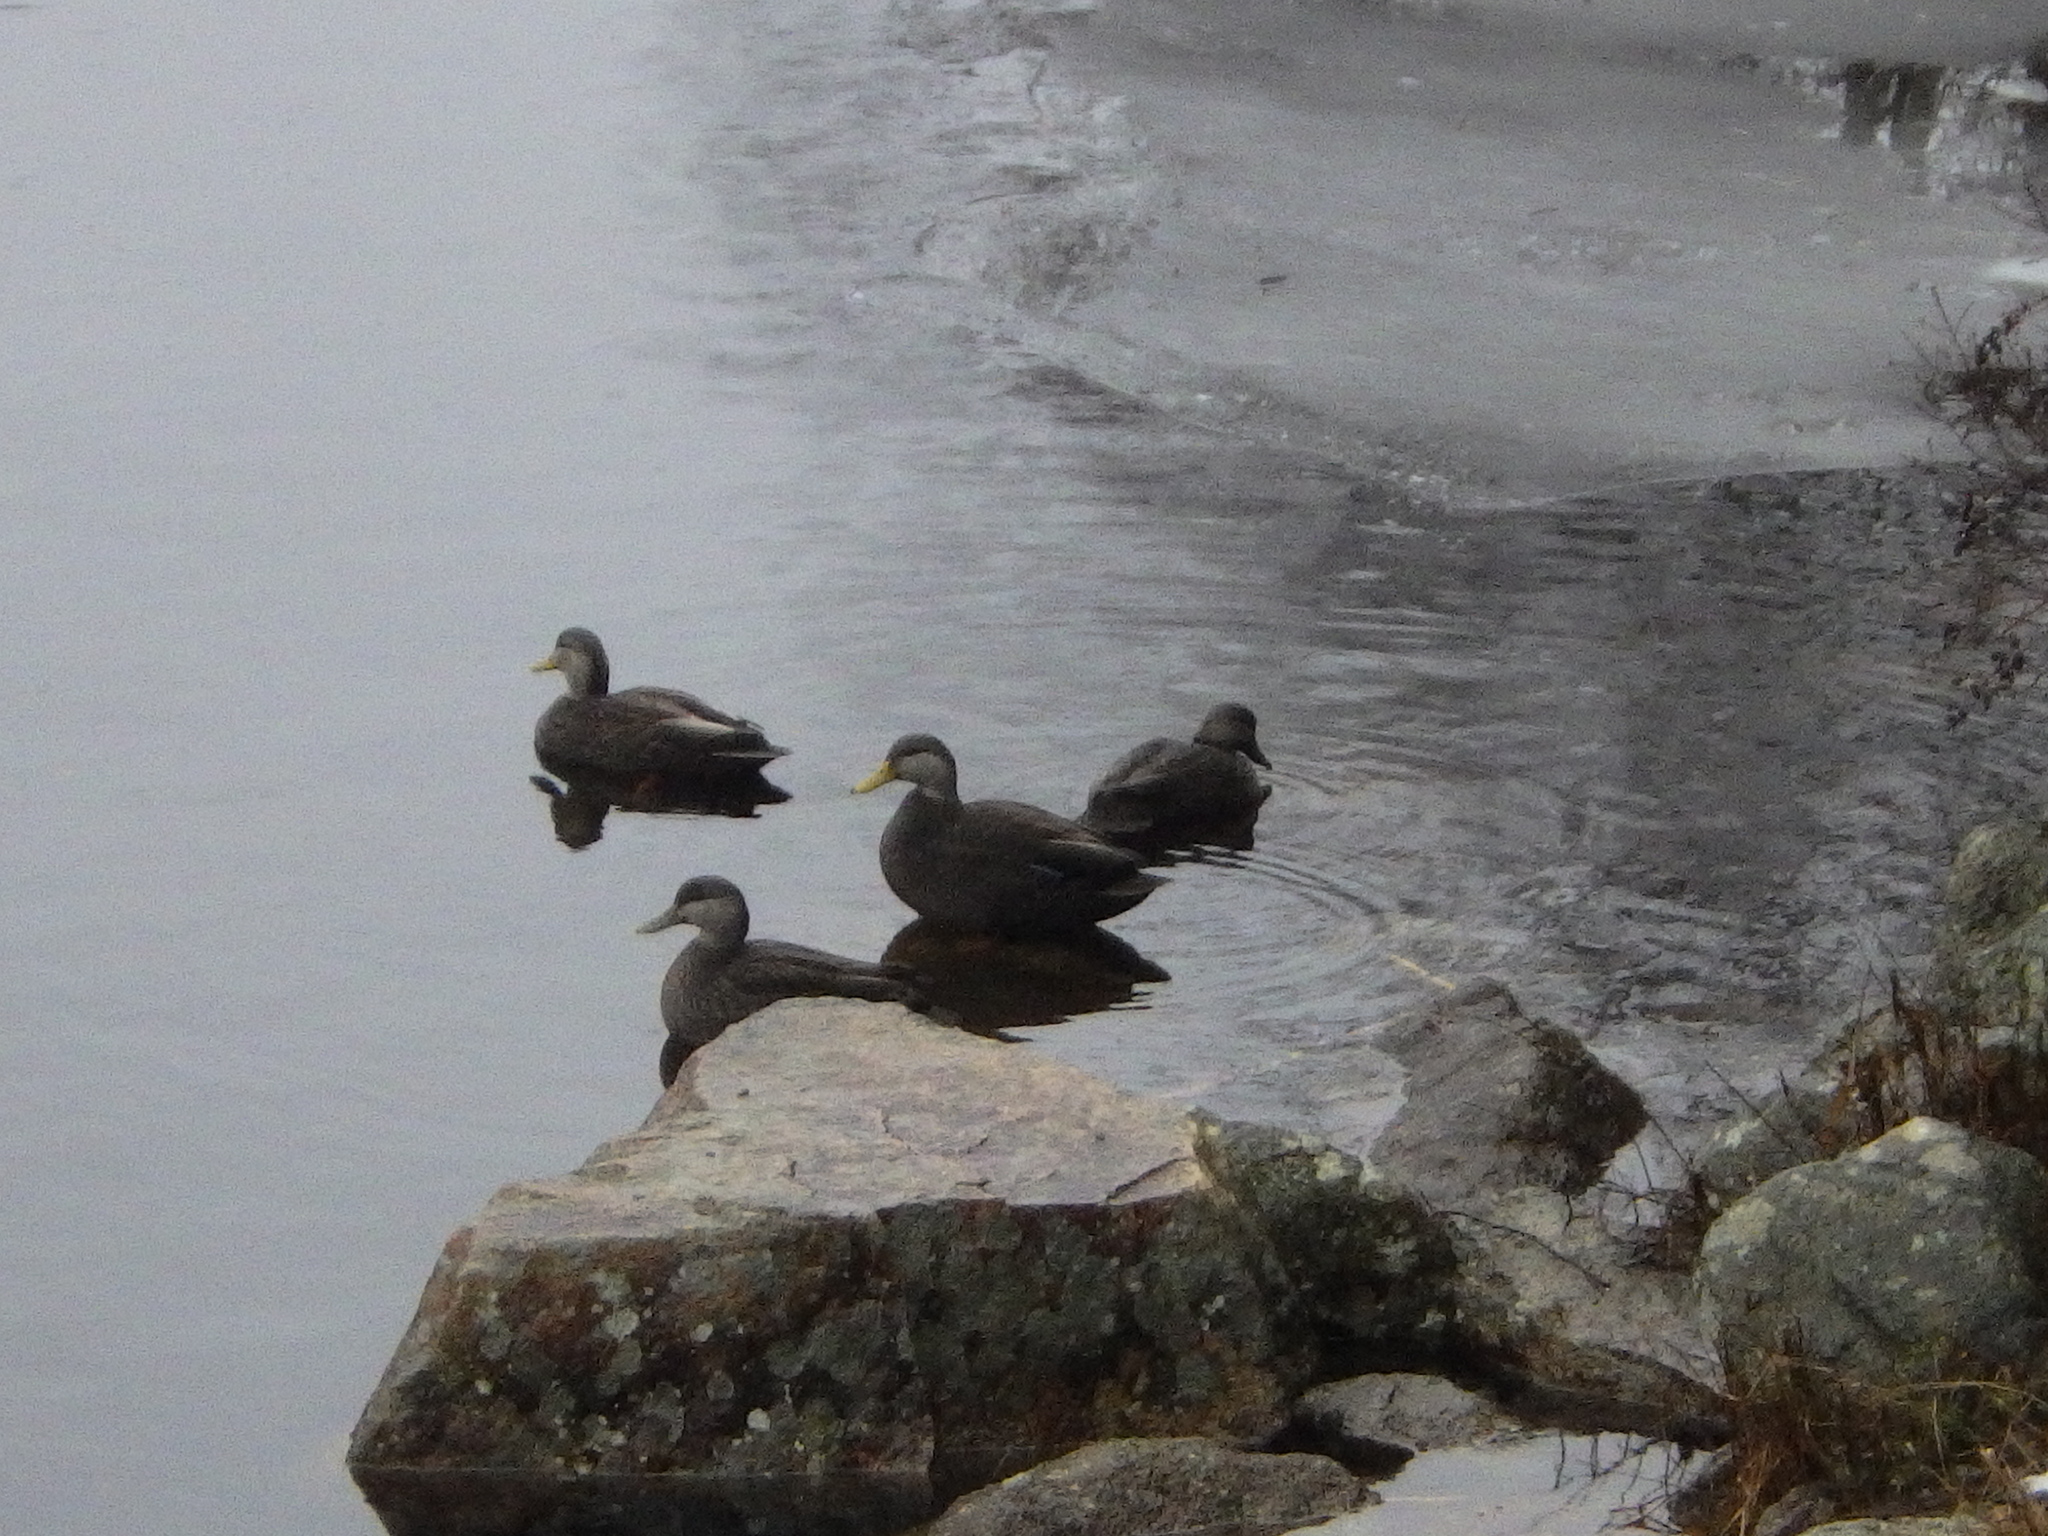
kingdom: Animalia
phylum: Chordata
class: Aves
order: Anseriformes
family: Anatidae
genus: Anas
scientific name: Anas rubripes
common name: American black duck
